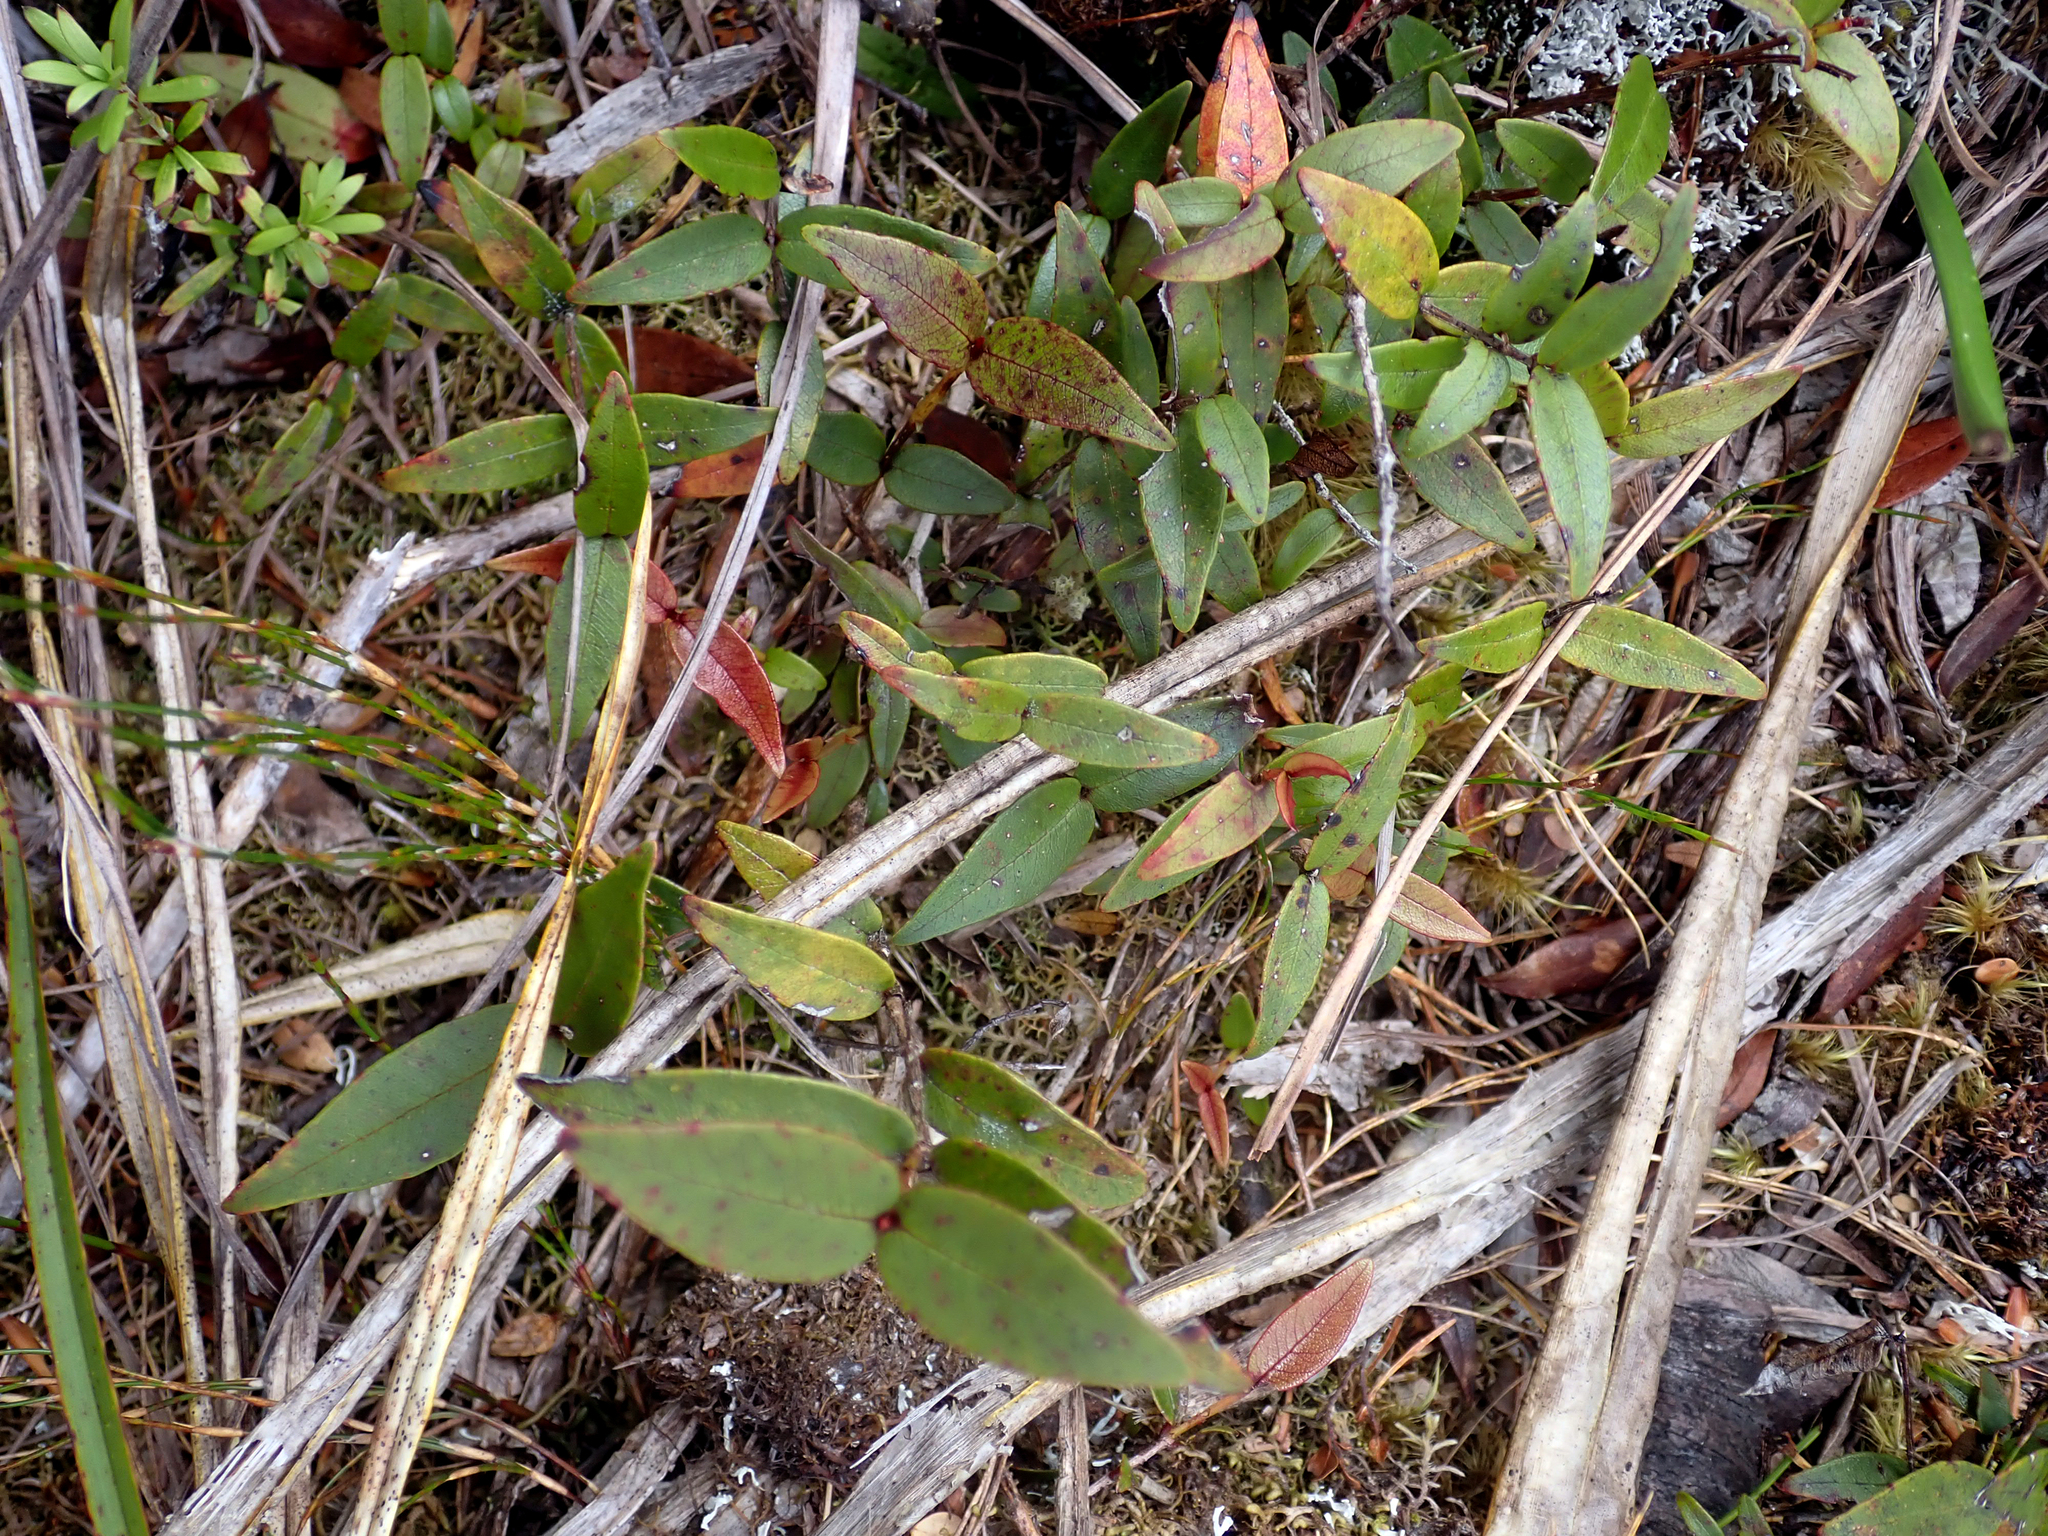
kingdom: Plantae
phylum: Tracheophyta
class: Magnoliopsida
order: Myrtales
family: Myrtaceae
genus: Metrosideros
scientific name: Metrosideros parkinsonii
